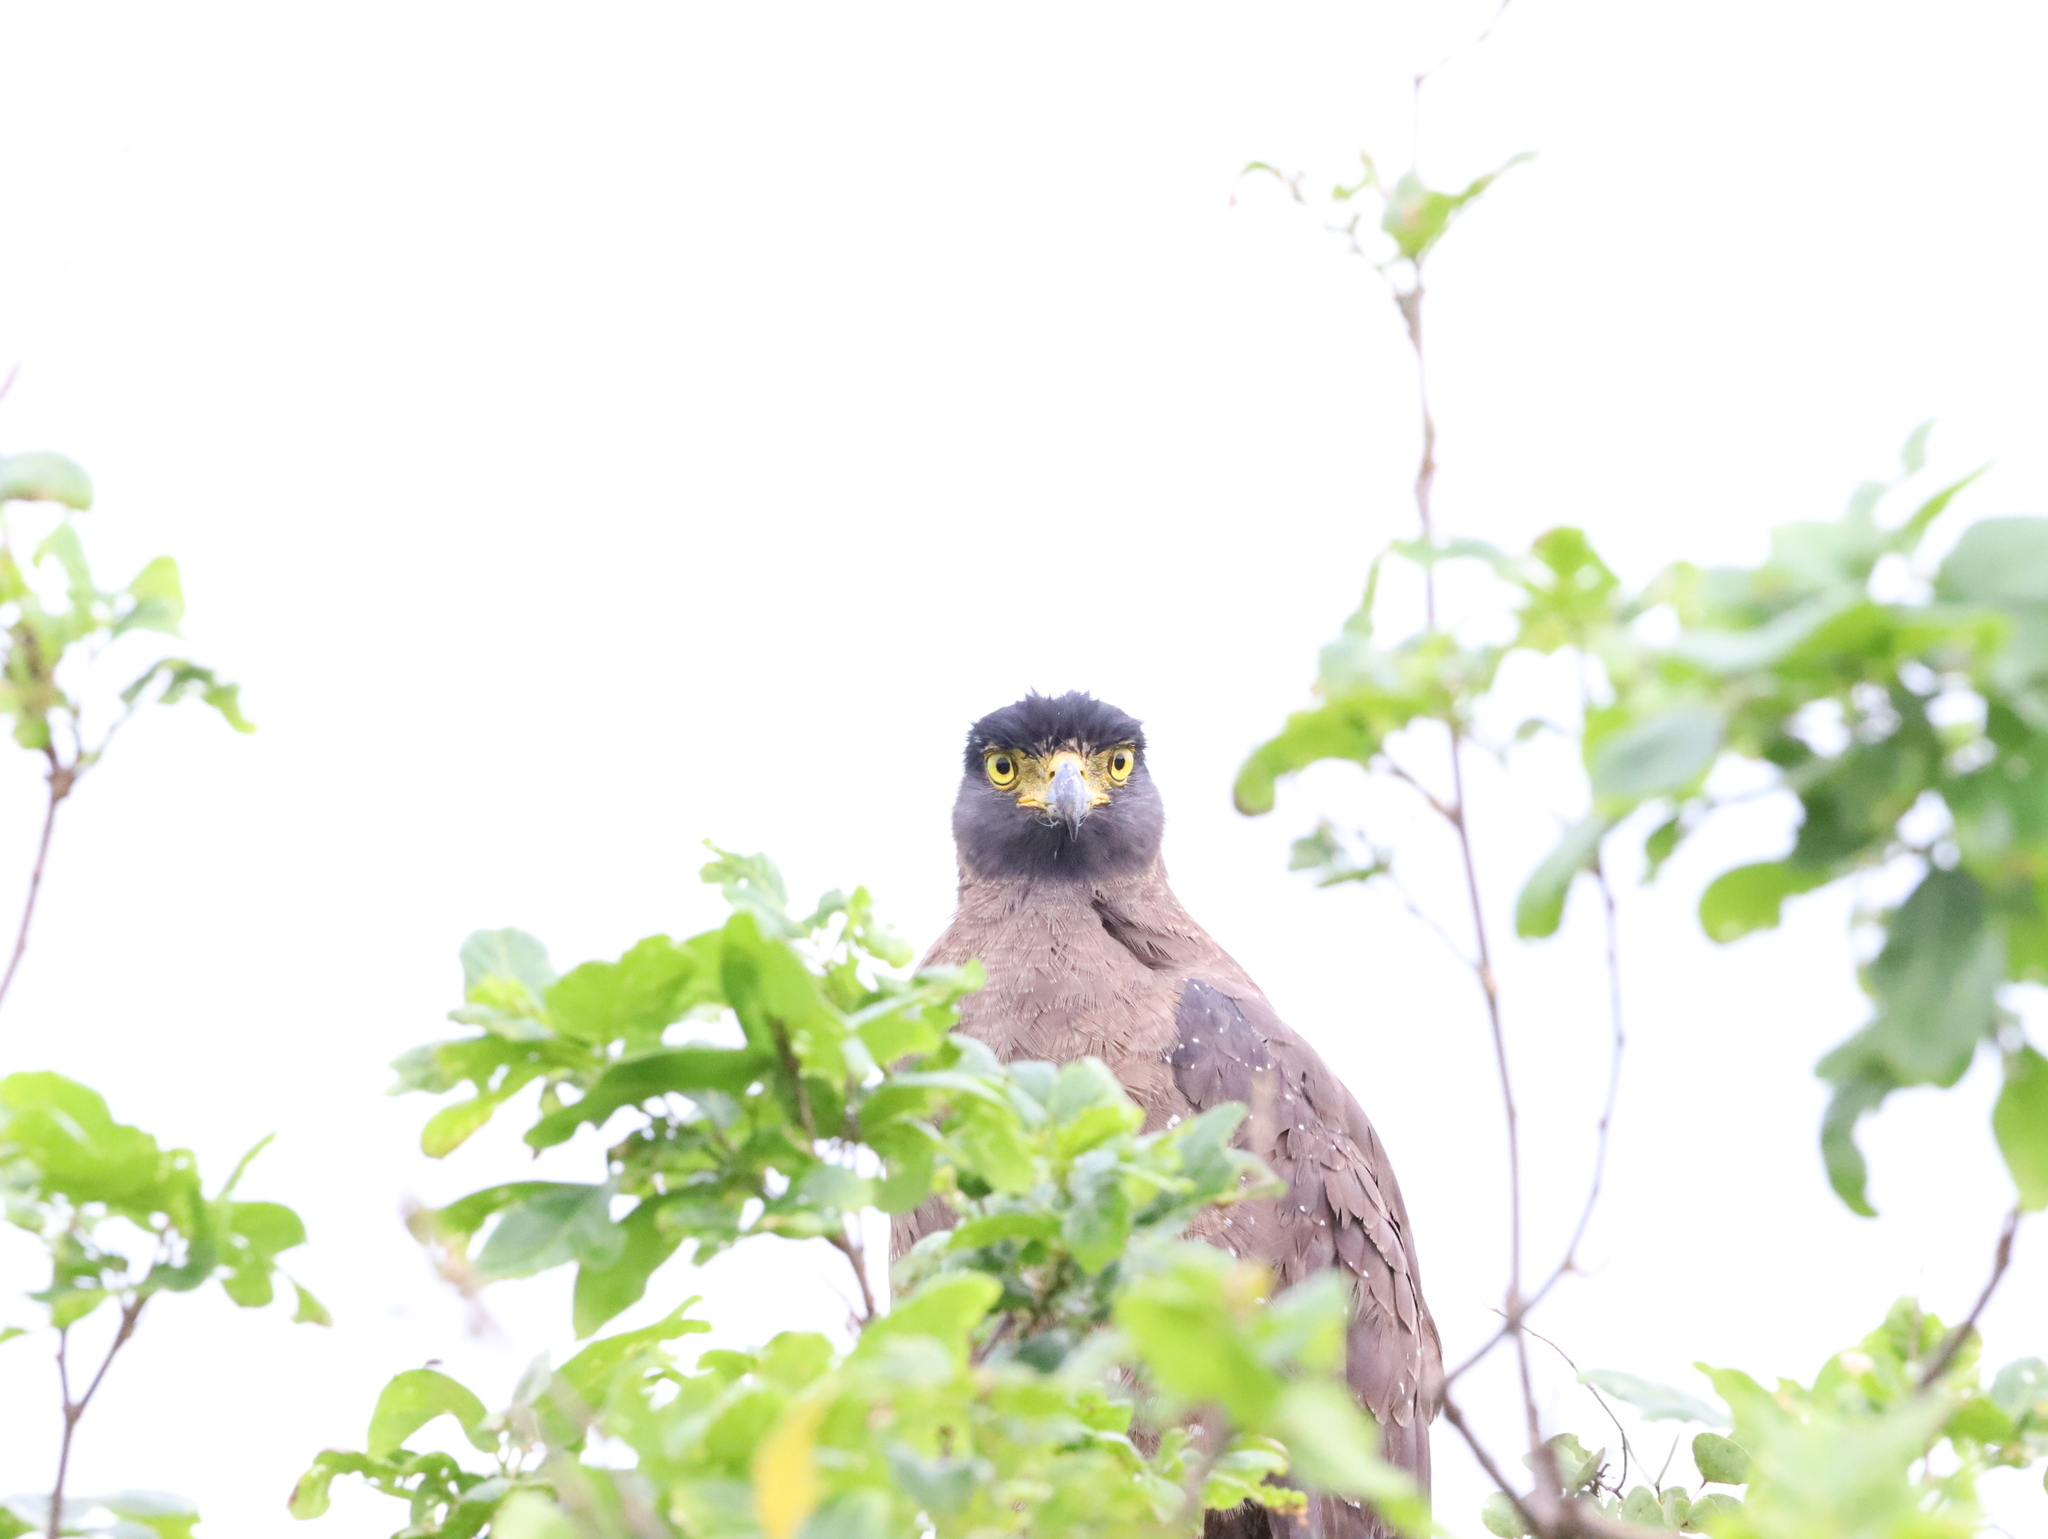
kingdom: Animalia
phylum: Chordata
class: Aves
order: Accipitriformes
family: Accipitridae
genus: Spilornis
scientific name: Spilornis cheela
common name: Crested serpent eagle
